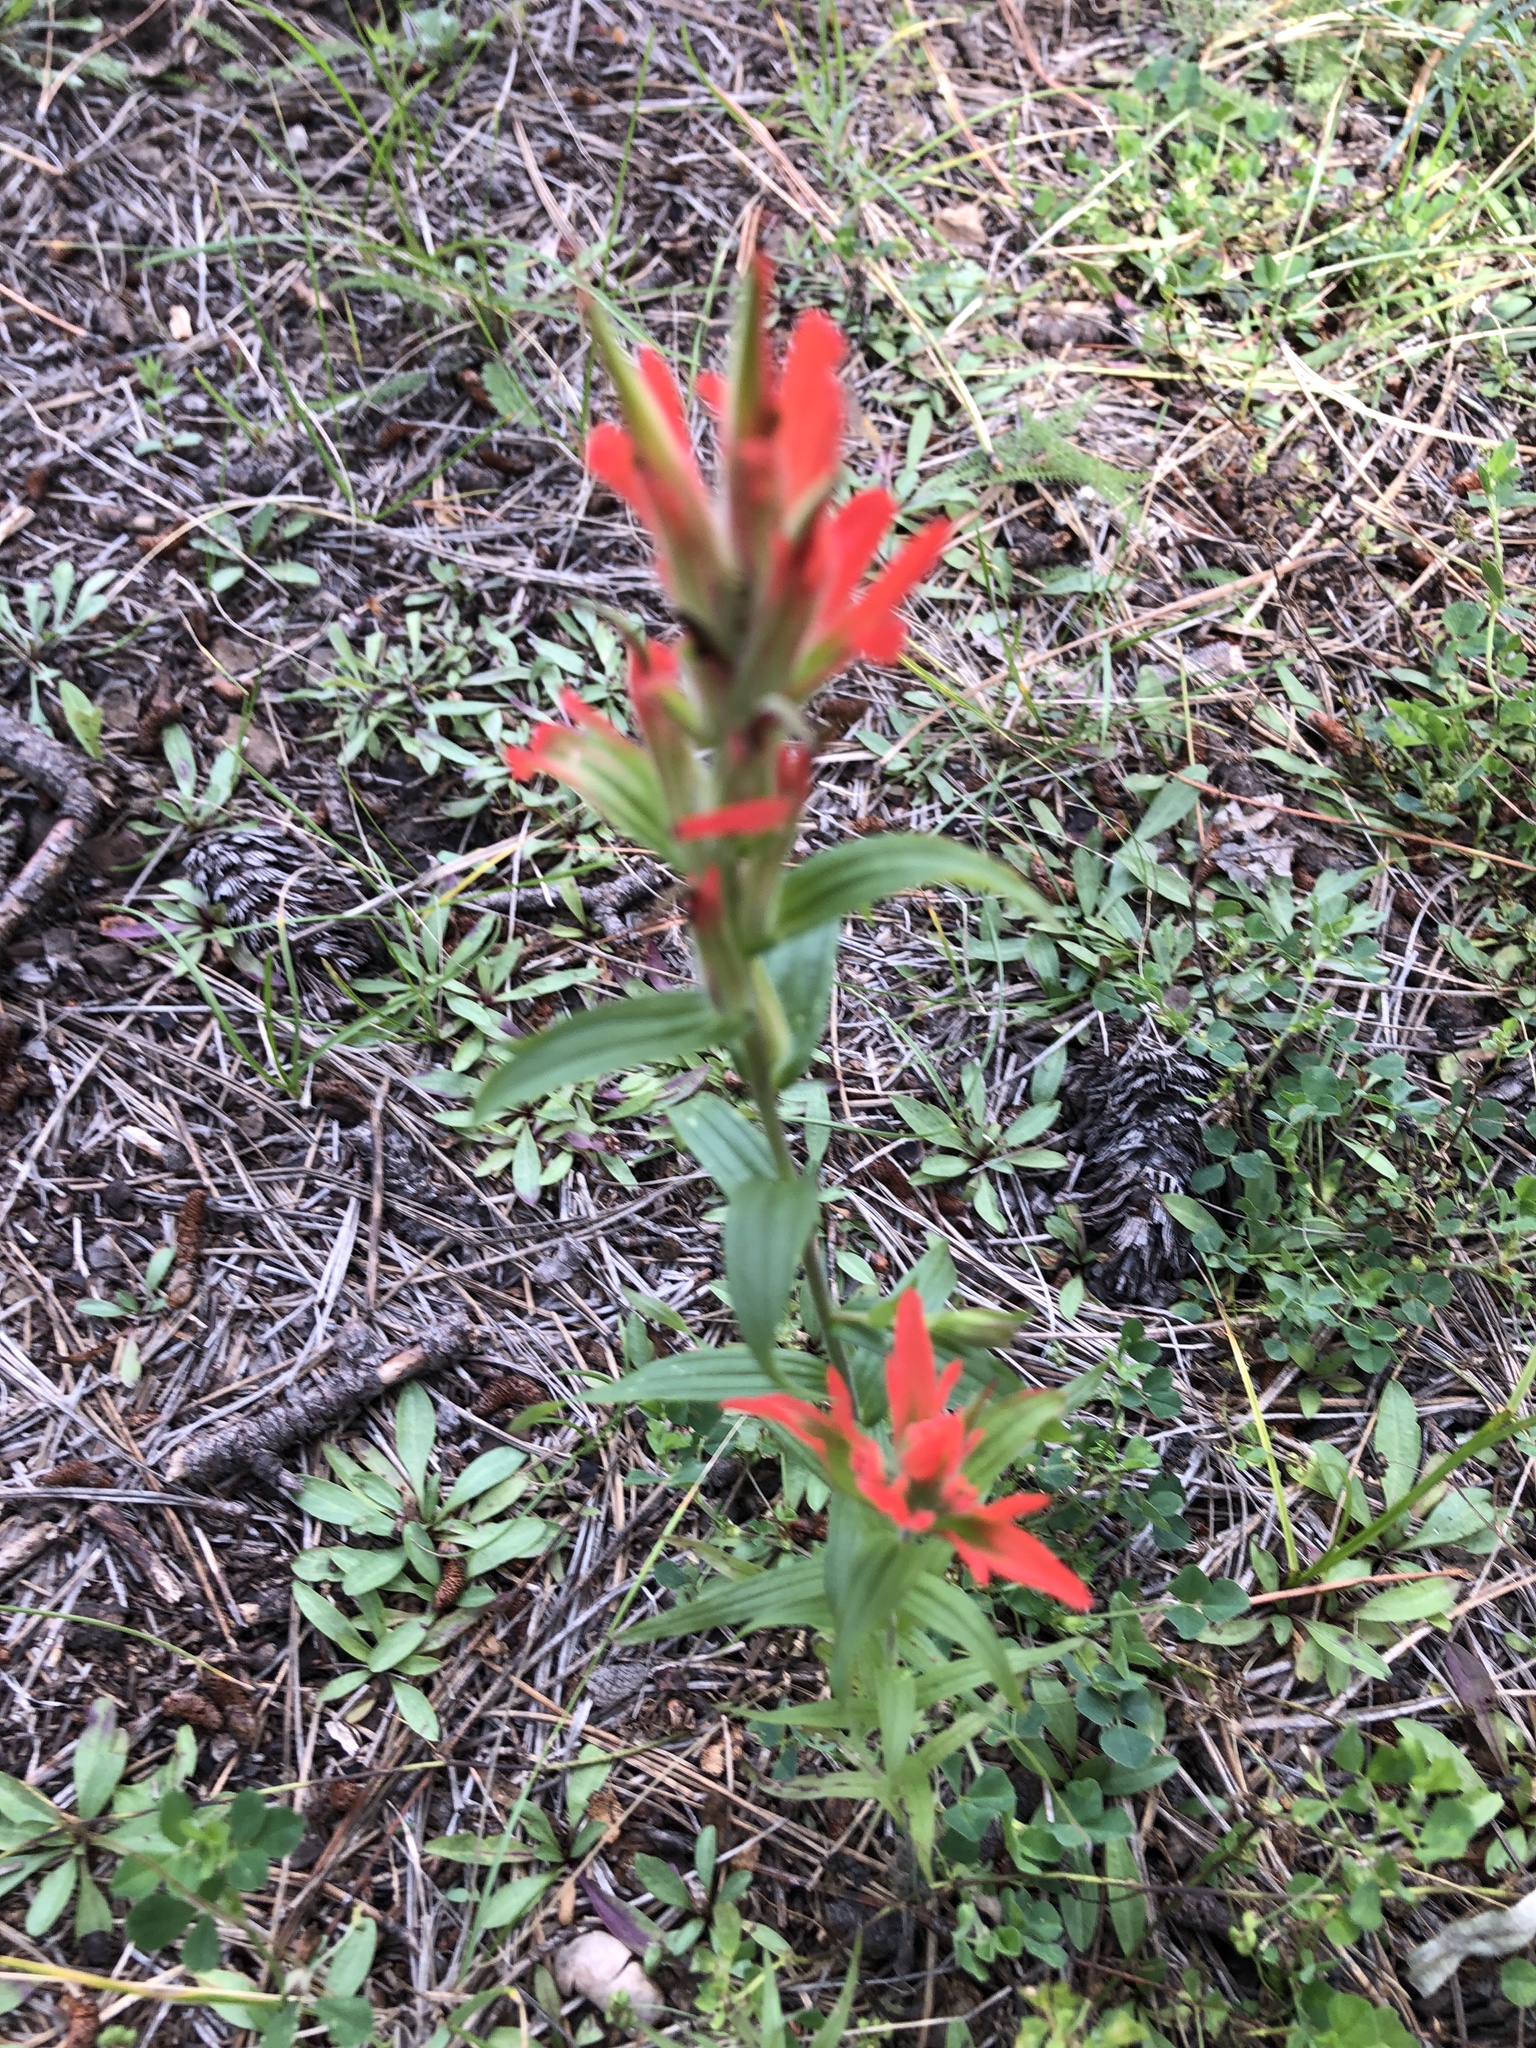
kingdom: Plantae
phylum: Tracheophyta
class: Magnoliopsida
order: Lamiales
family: Orobanchaceae
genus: Castilleja
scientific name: Castilleja nelsonii
